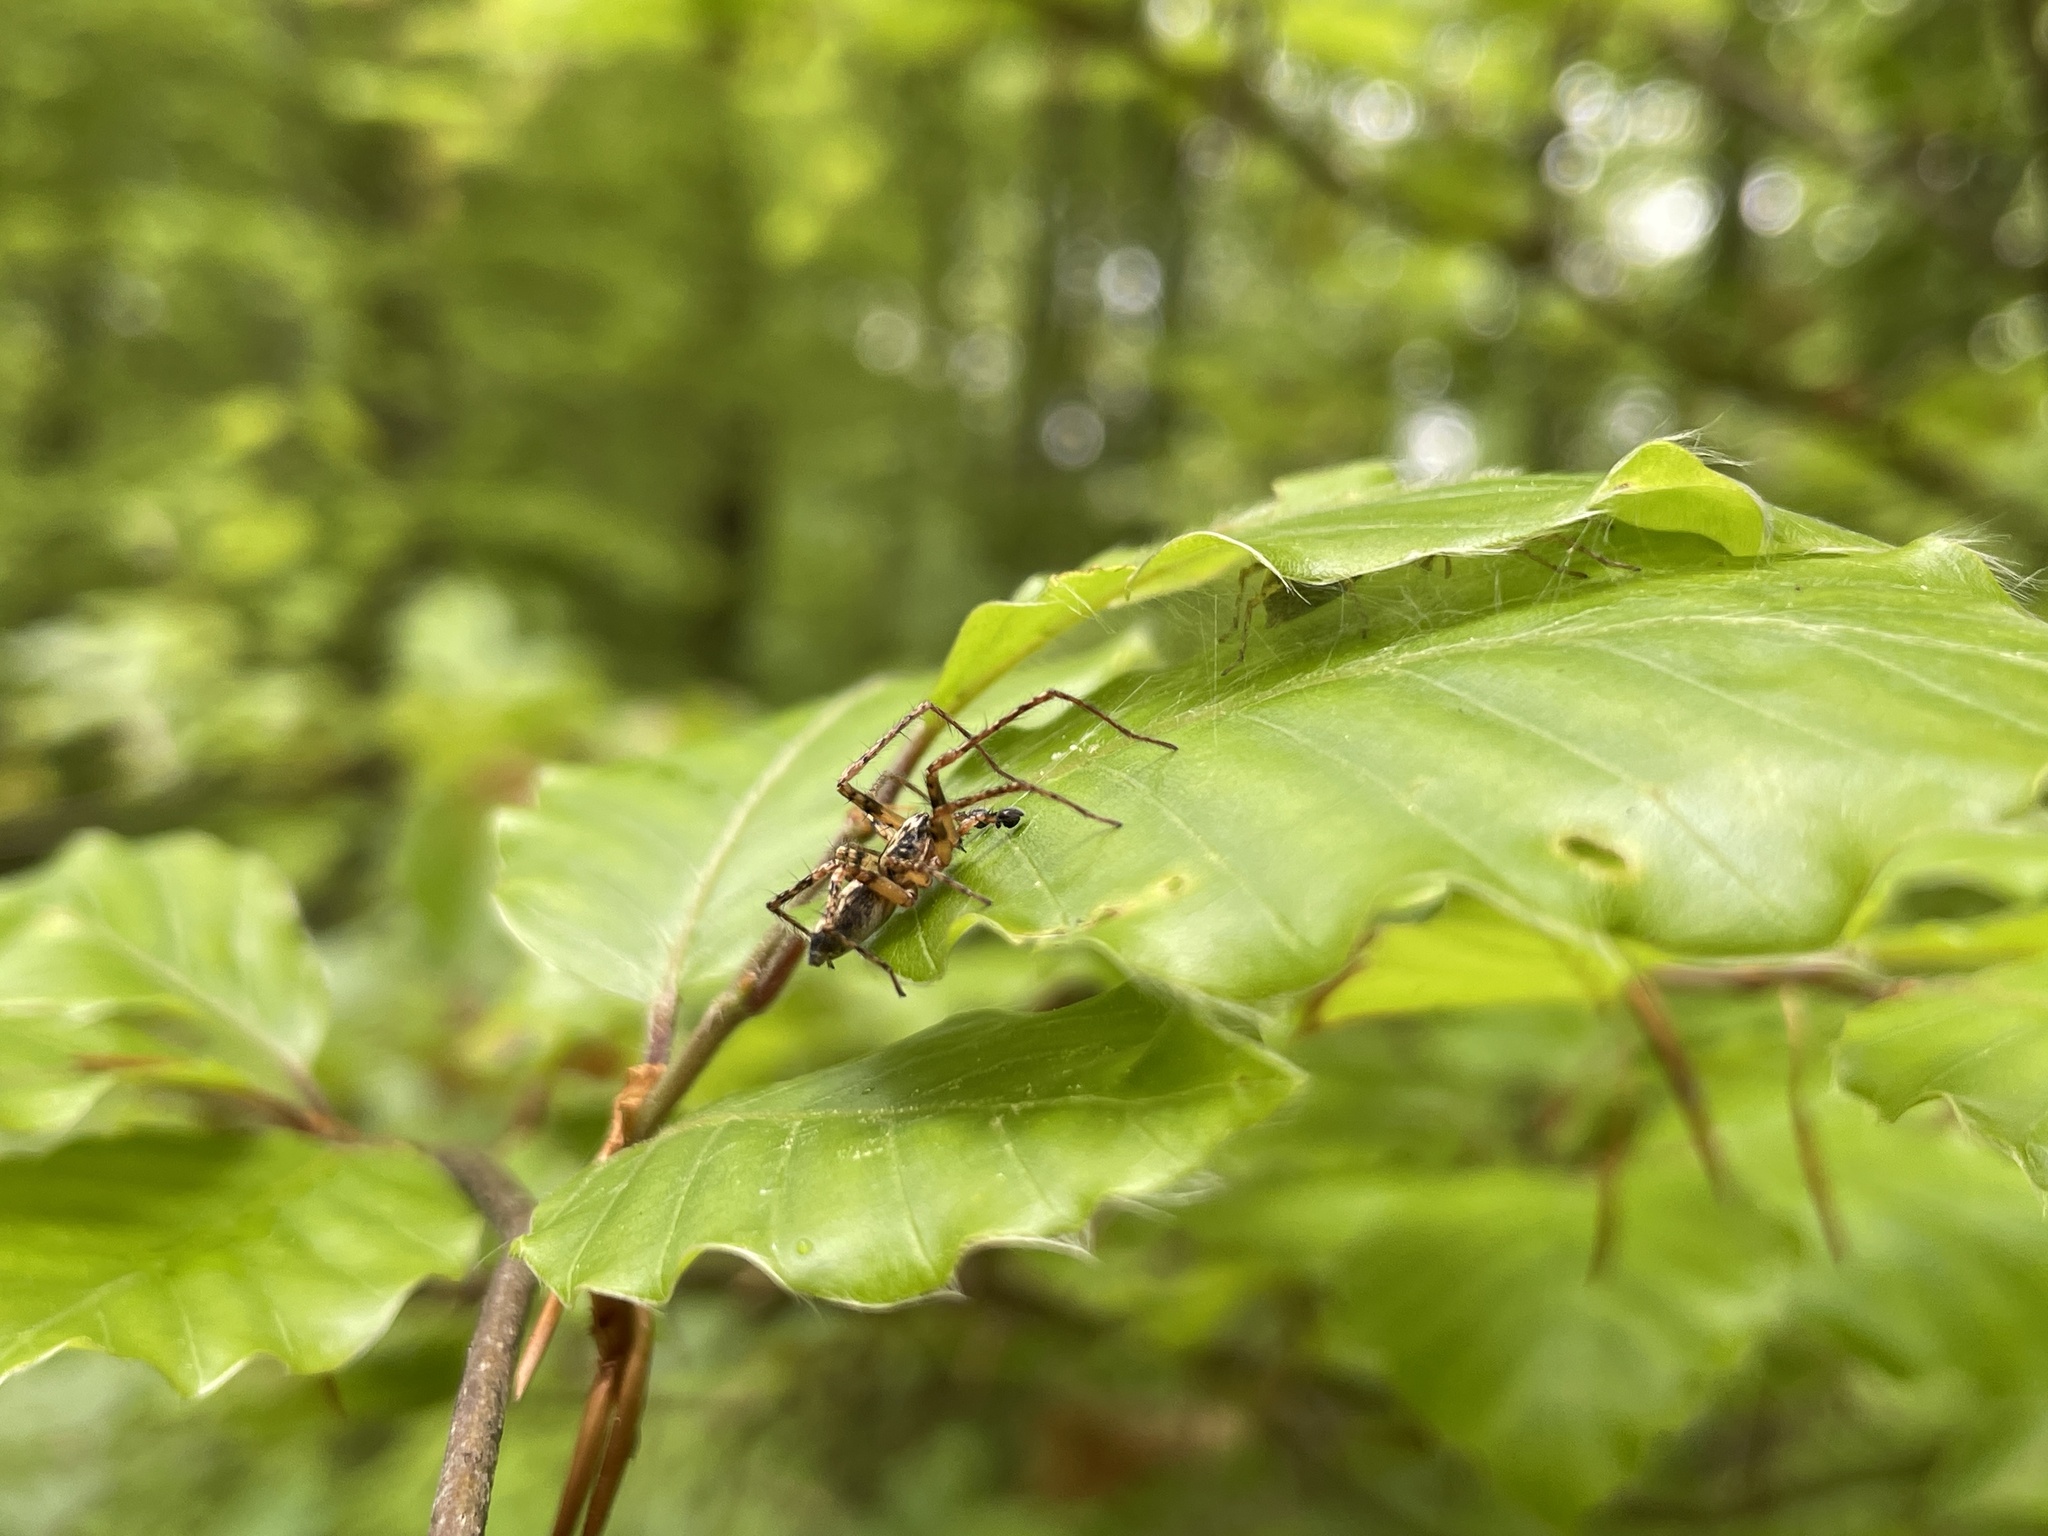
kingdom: Animalia
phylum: Arthropoda
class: Arachnida
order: Araneae
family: Anyphaenidae
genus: Anyphaena
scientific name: Anyphaena accentuata
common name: Buzzing spider
